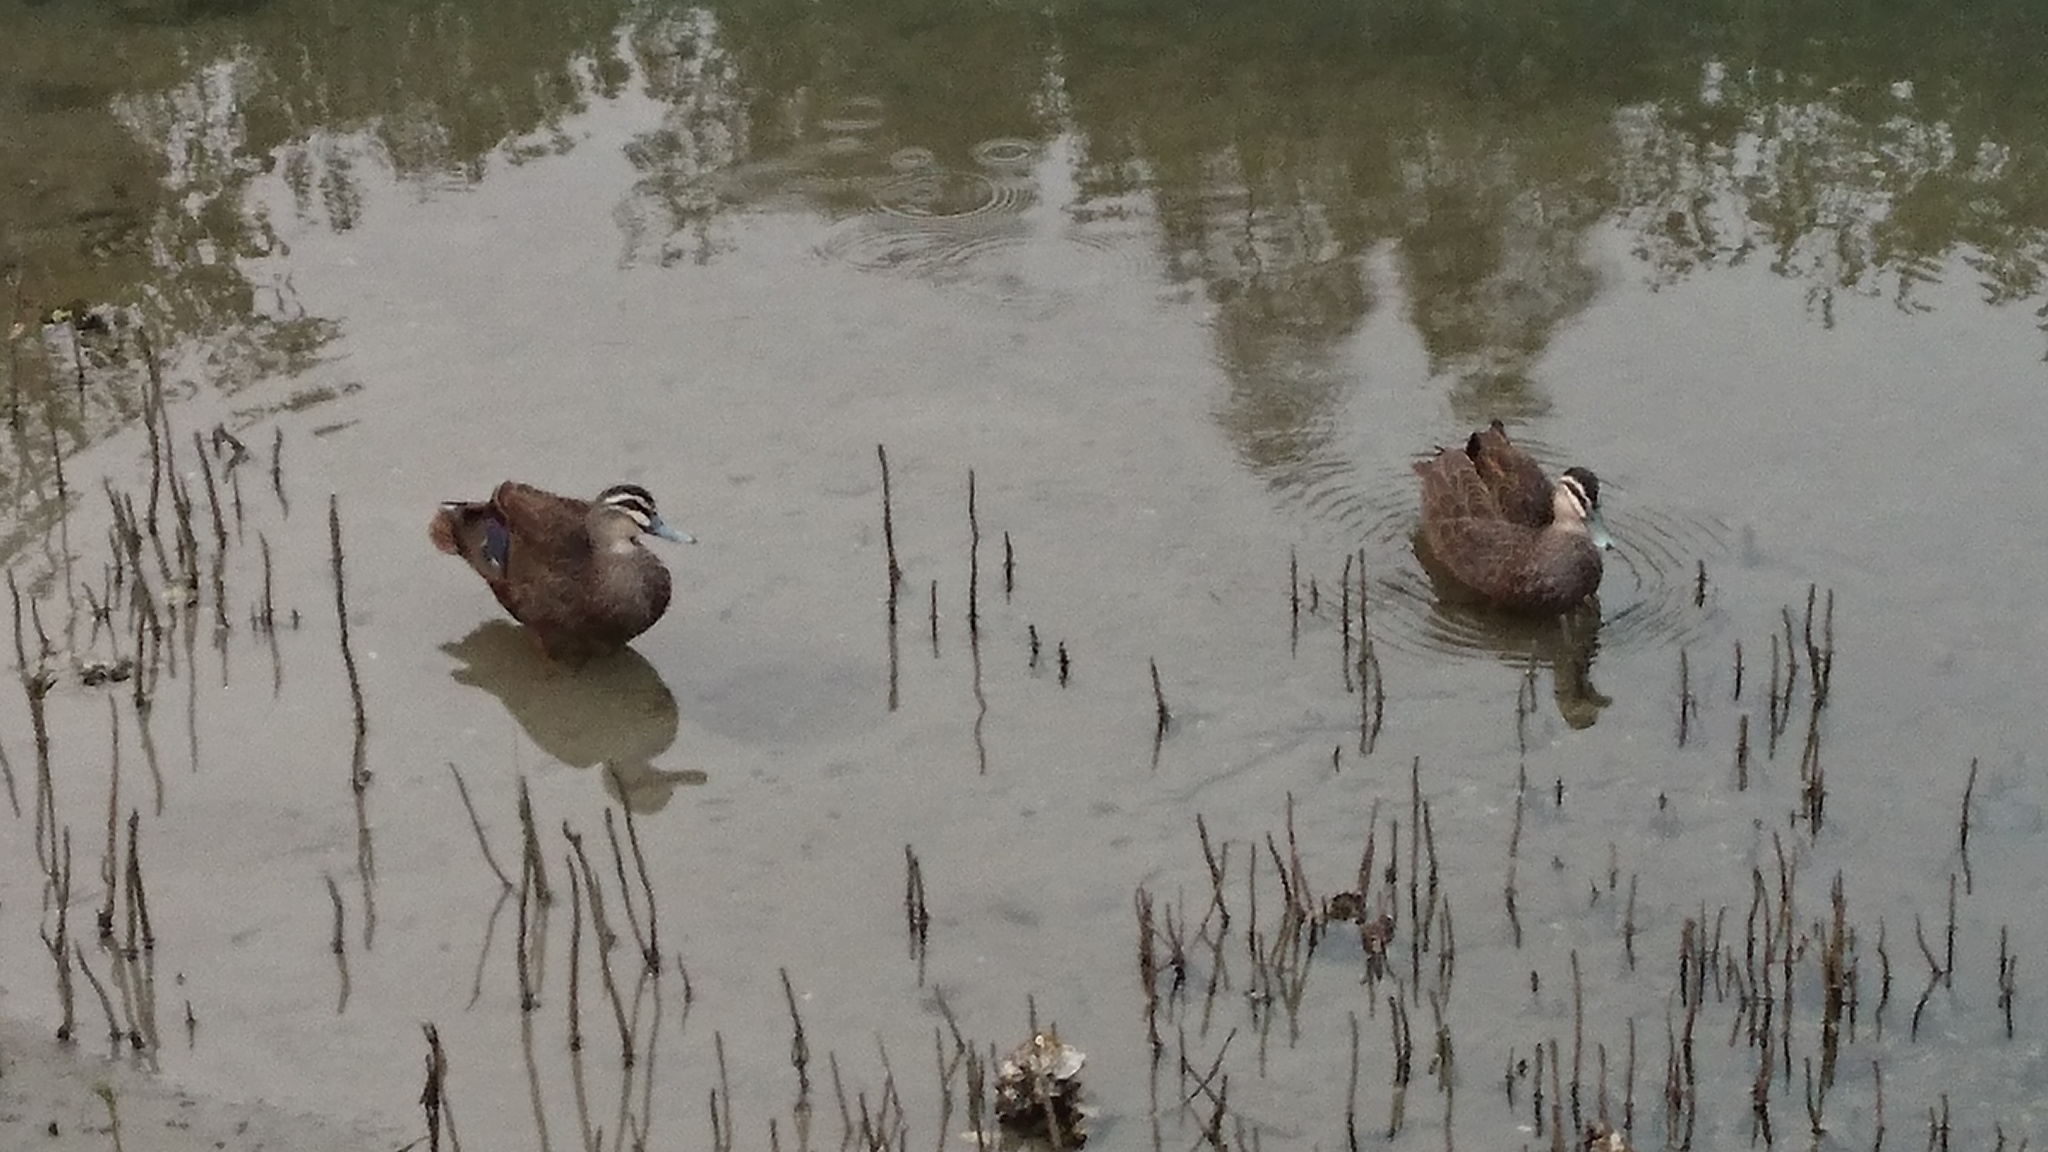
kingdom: Animalia
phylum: Chordata
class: Aves
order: Anseriformes
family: Anatidae
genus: Anas
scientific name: Anas superciliosa
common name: Pacific black duck
